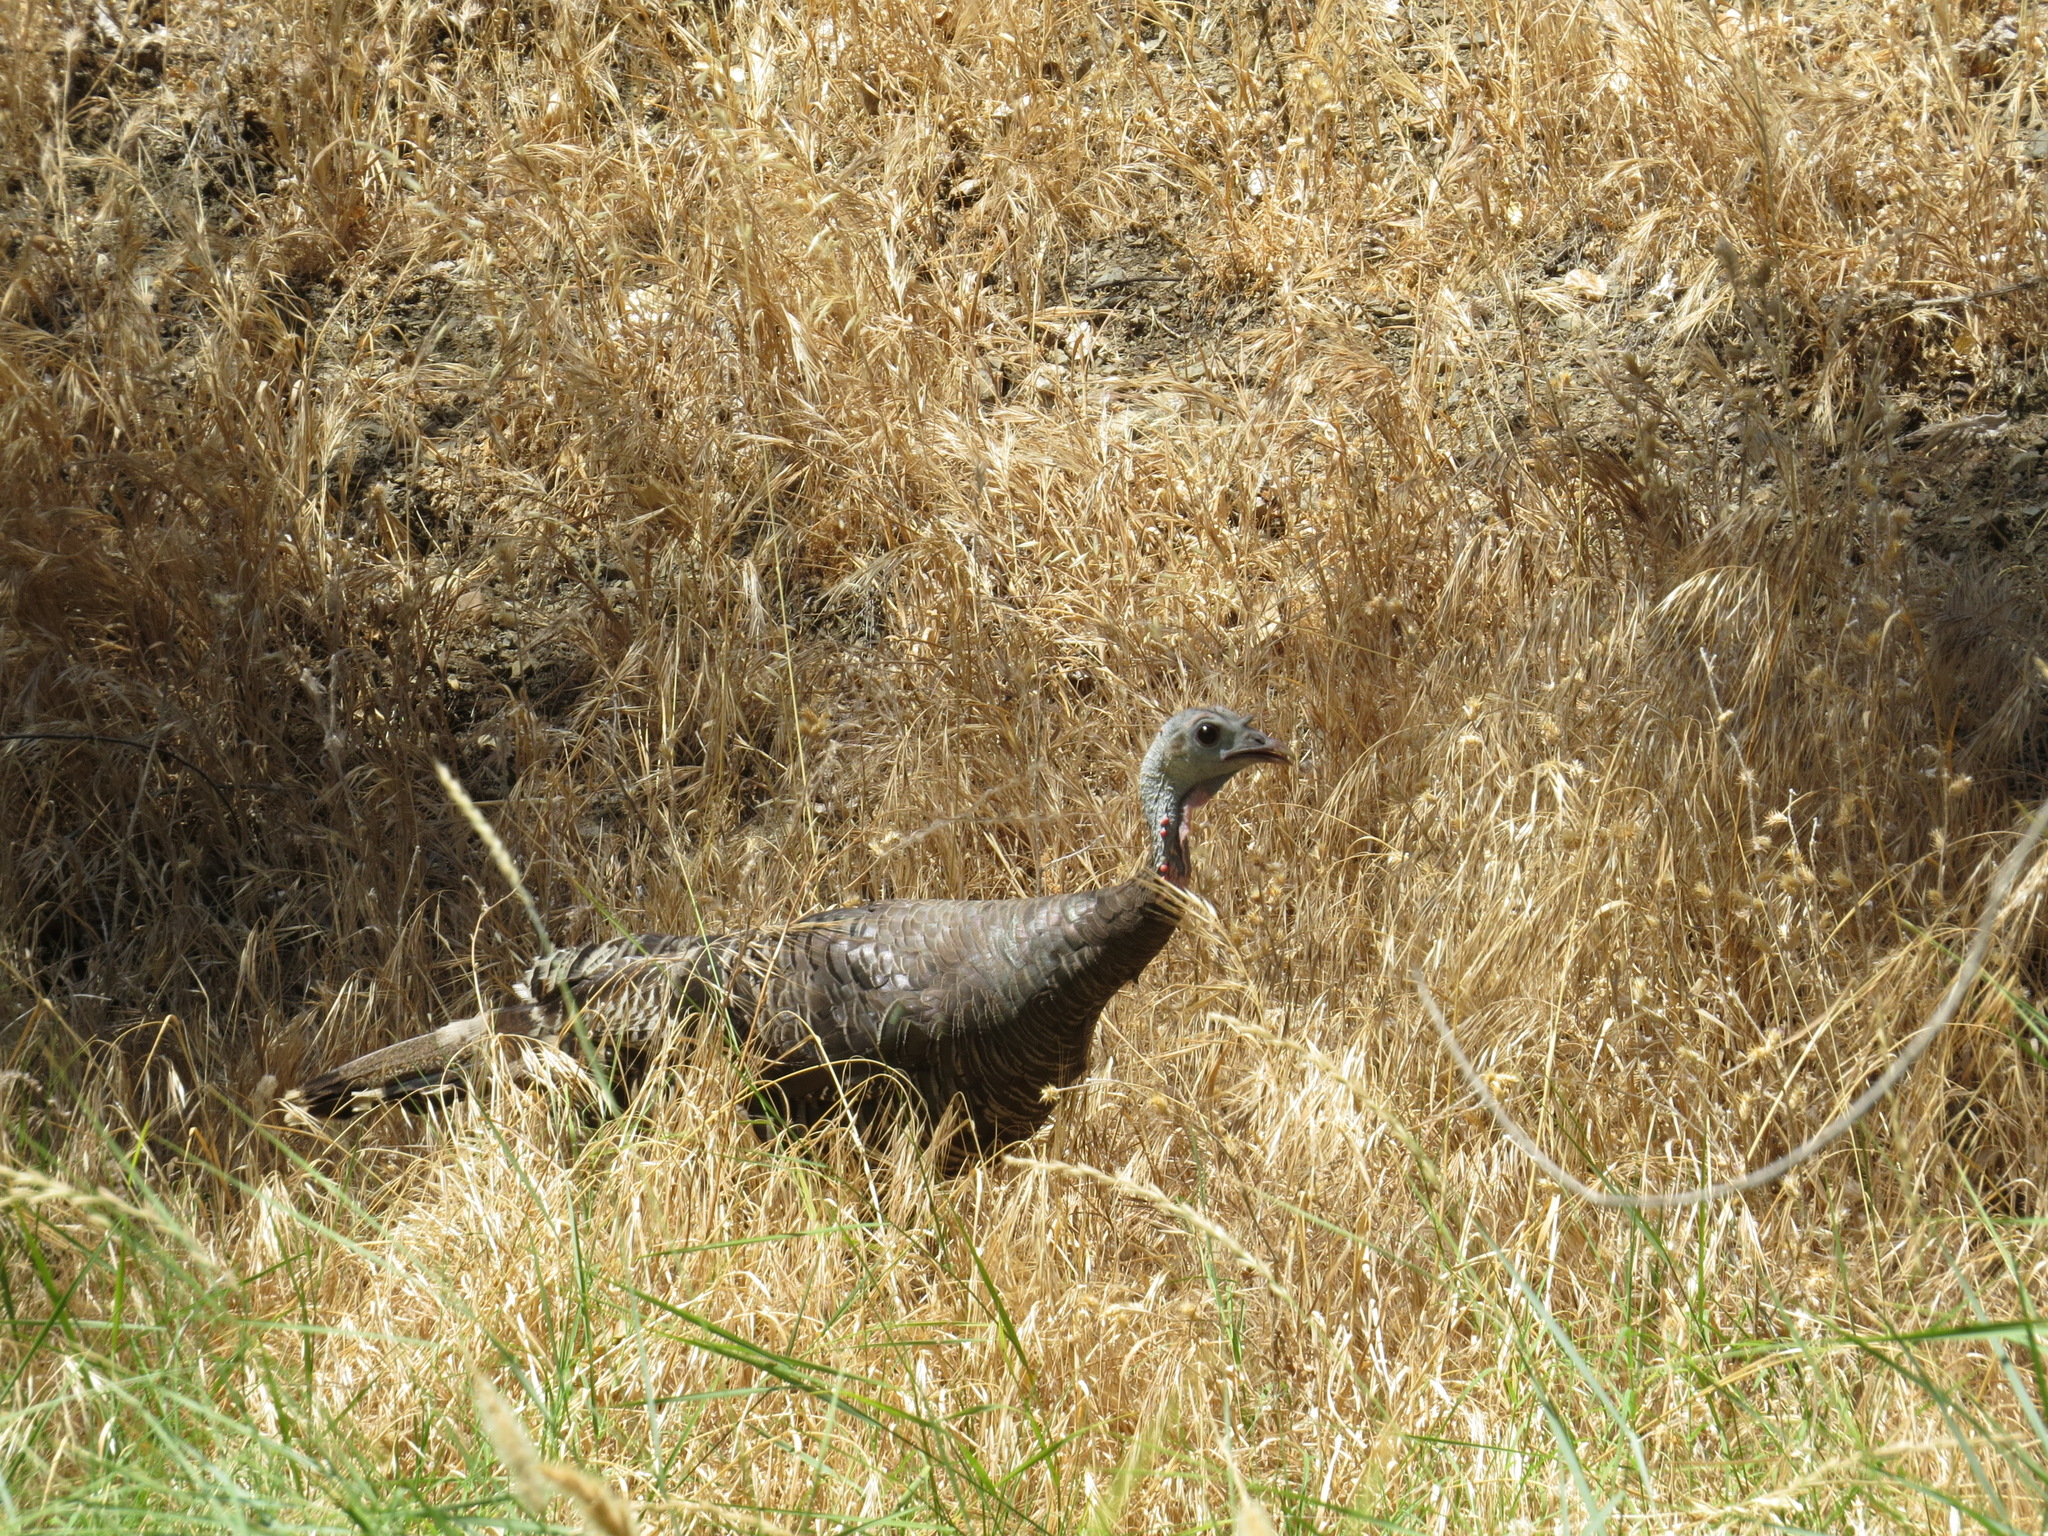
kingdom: Animalia
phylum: Chordata
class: Aves
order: Galliformes
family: Phasianidae
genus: Meleagris
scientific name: Meleagris gallopavo
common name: Wild turkey
